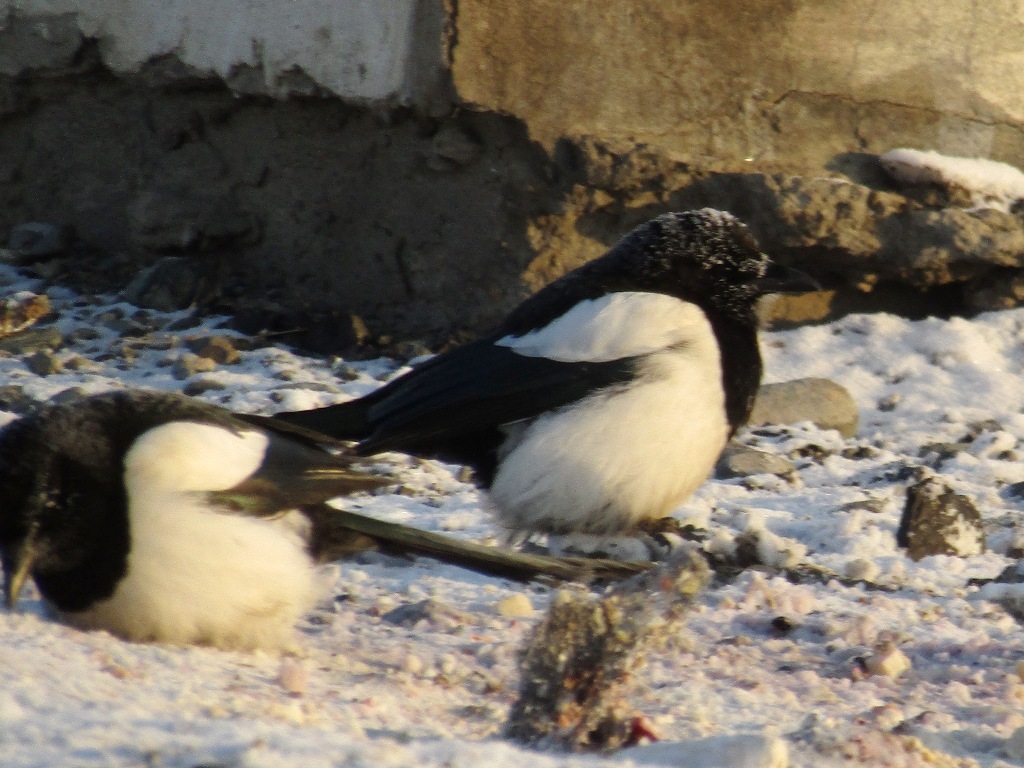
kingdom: Animalia
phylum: Chordata
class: Aves
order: Passeriformes
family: Corvidae
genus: Pica
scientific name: Pica pica
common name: Eurasian magpie
